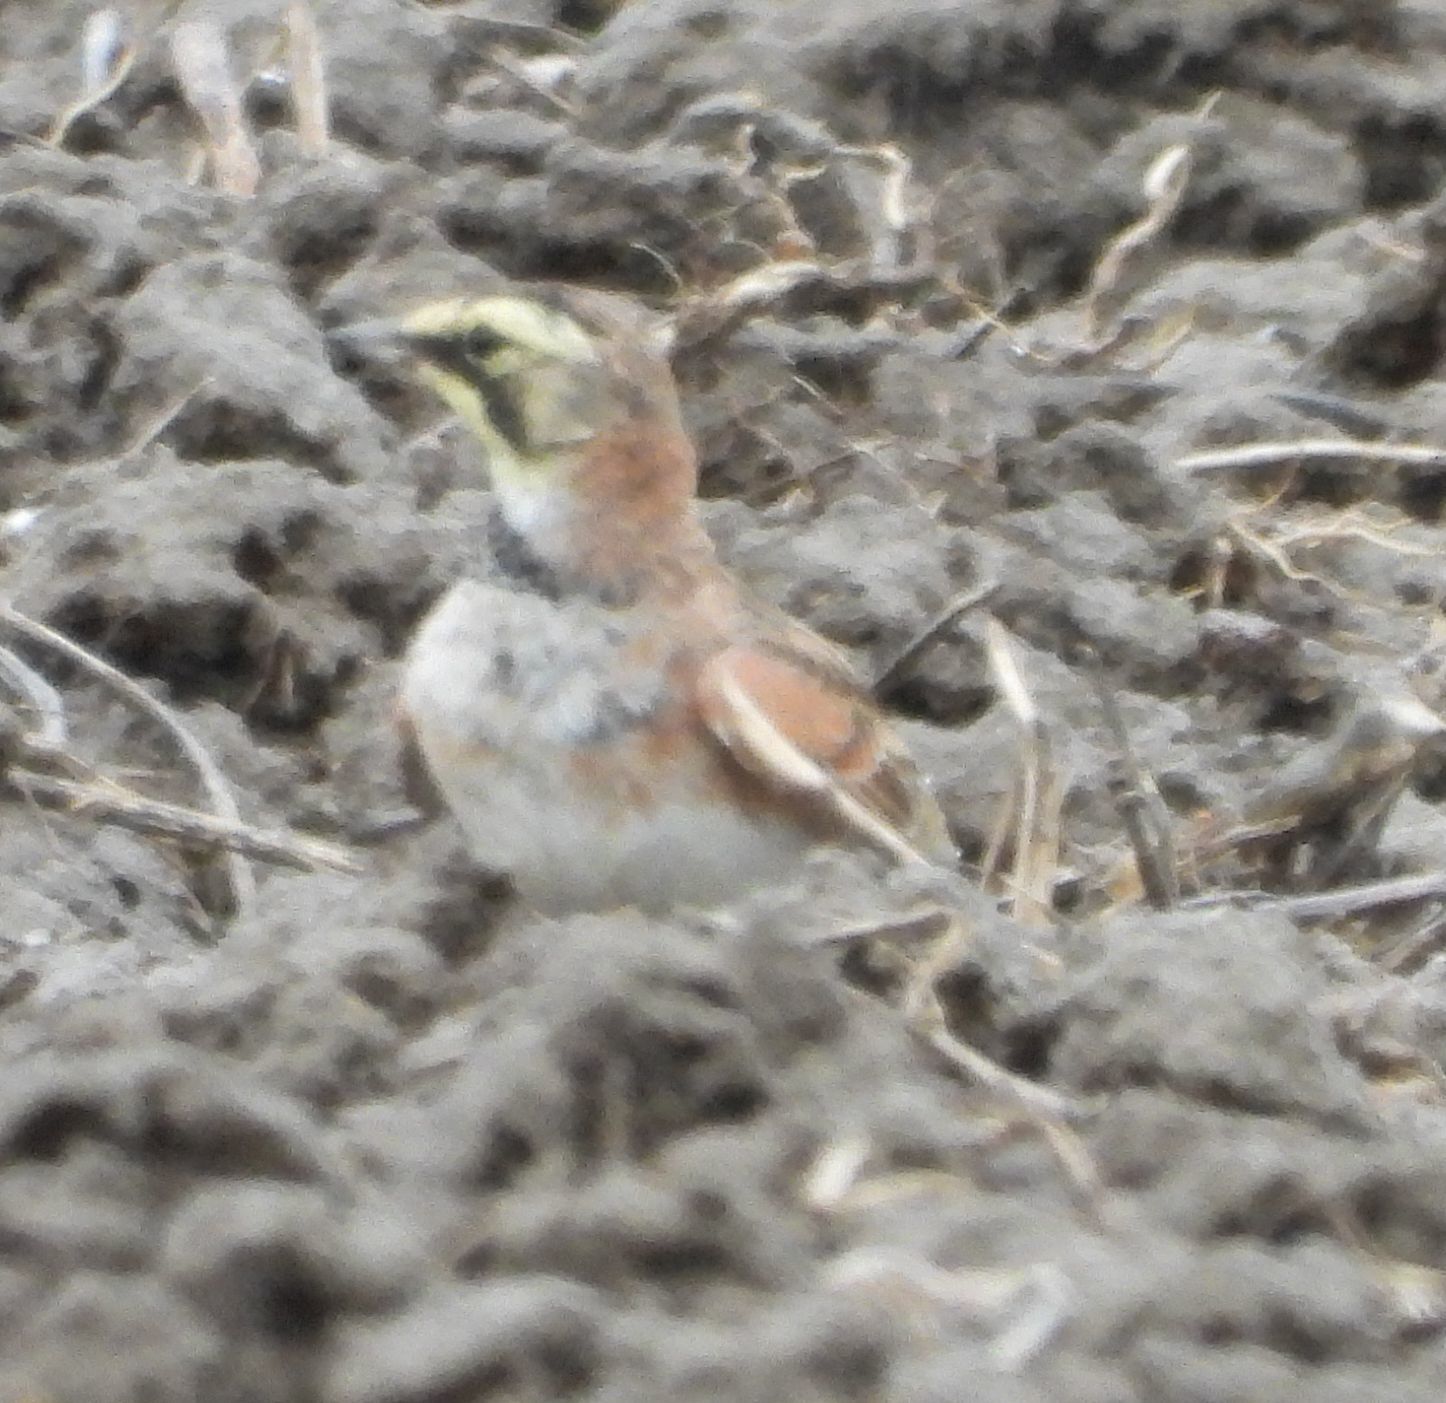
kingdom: Animalia
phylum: Chordata
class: Aves
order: Passeriformes
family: Alaudidae
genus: Eremophila
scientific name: Eremophila alpestris
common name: Horned lark
